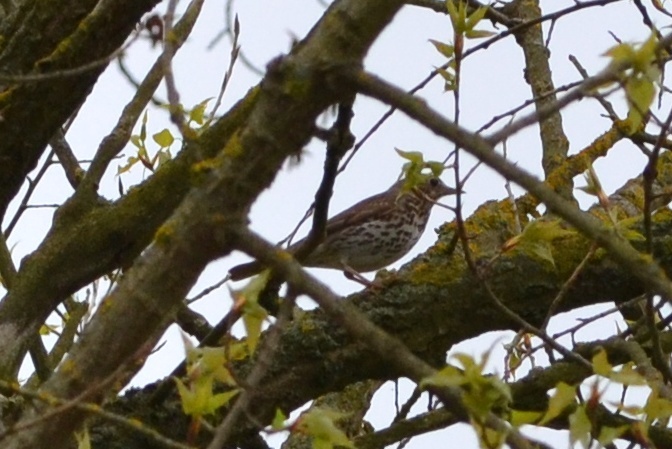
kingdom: Animalia
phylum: Chordata
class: Aves
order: Passeriformes
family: Turdidae
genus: Turdus
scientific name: Turdus philomelos
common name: Song thrush
